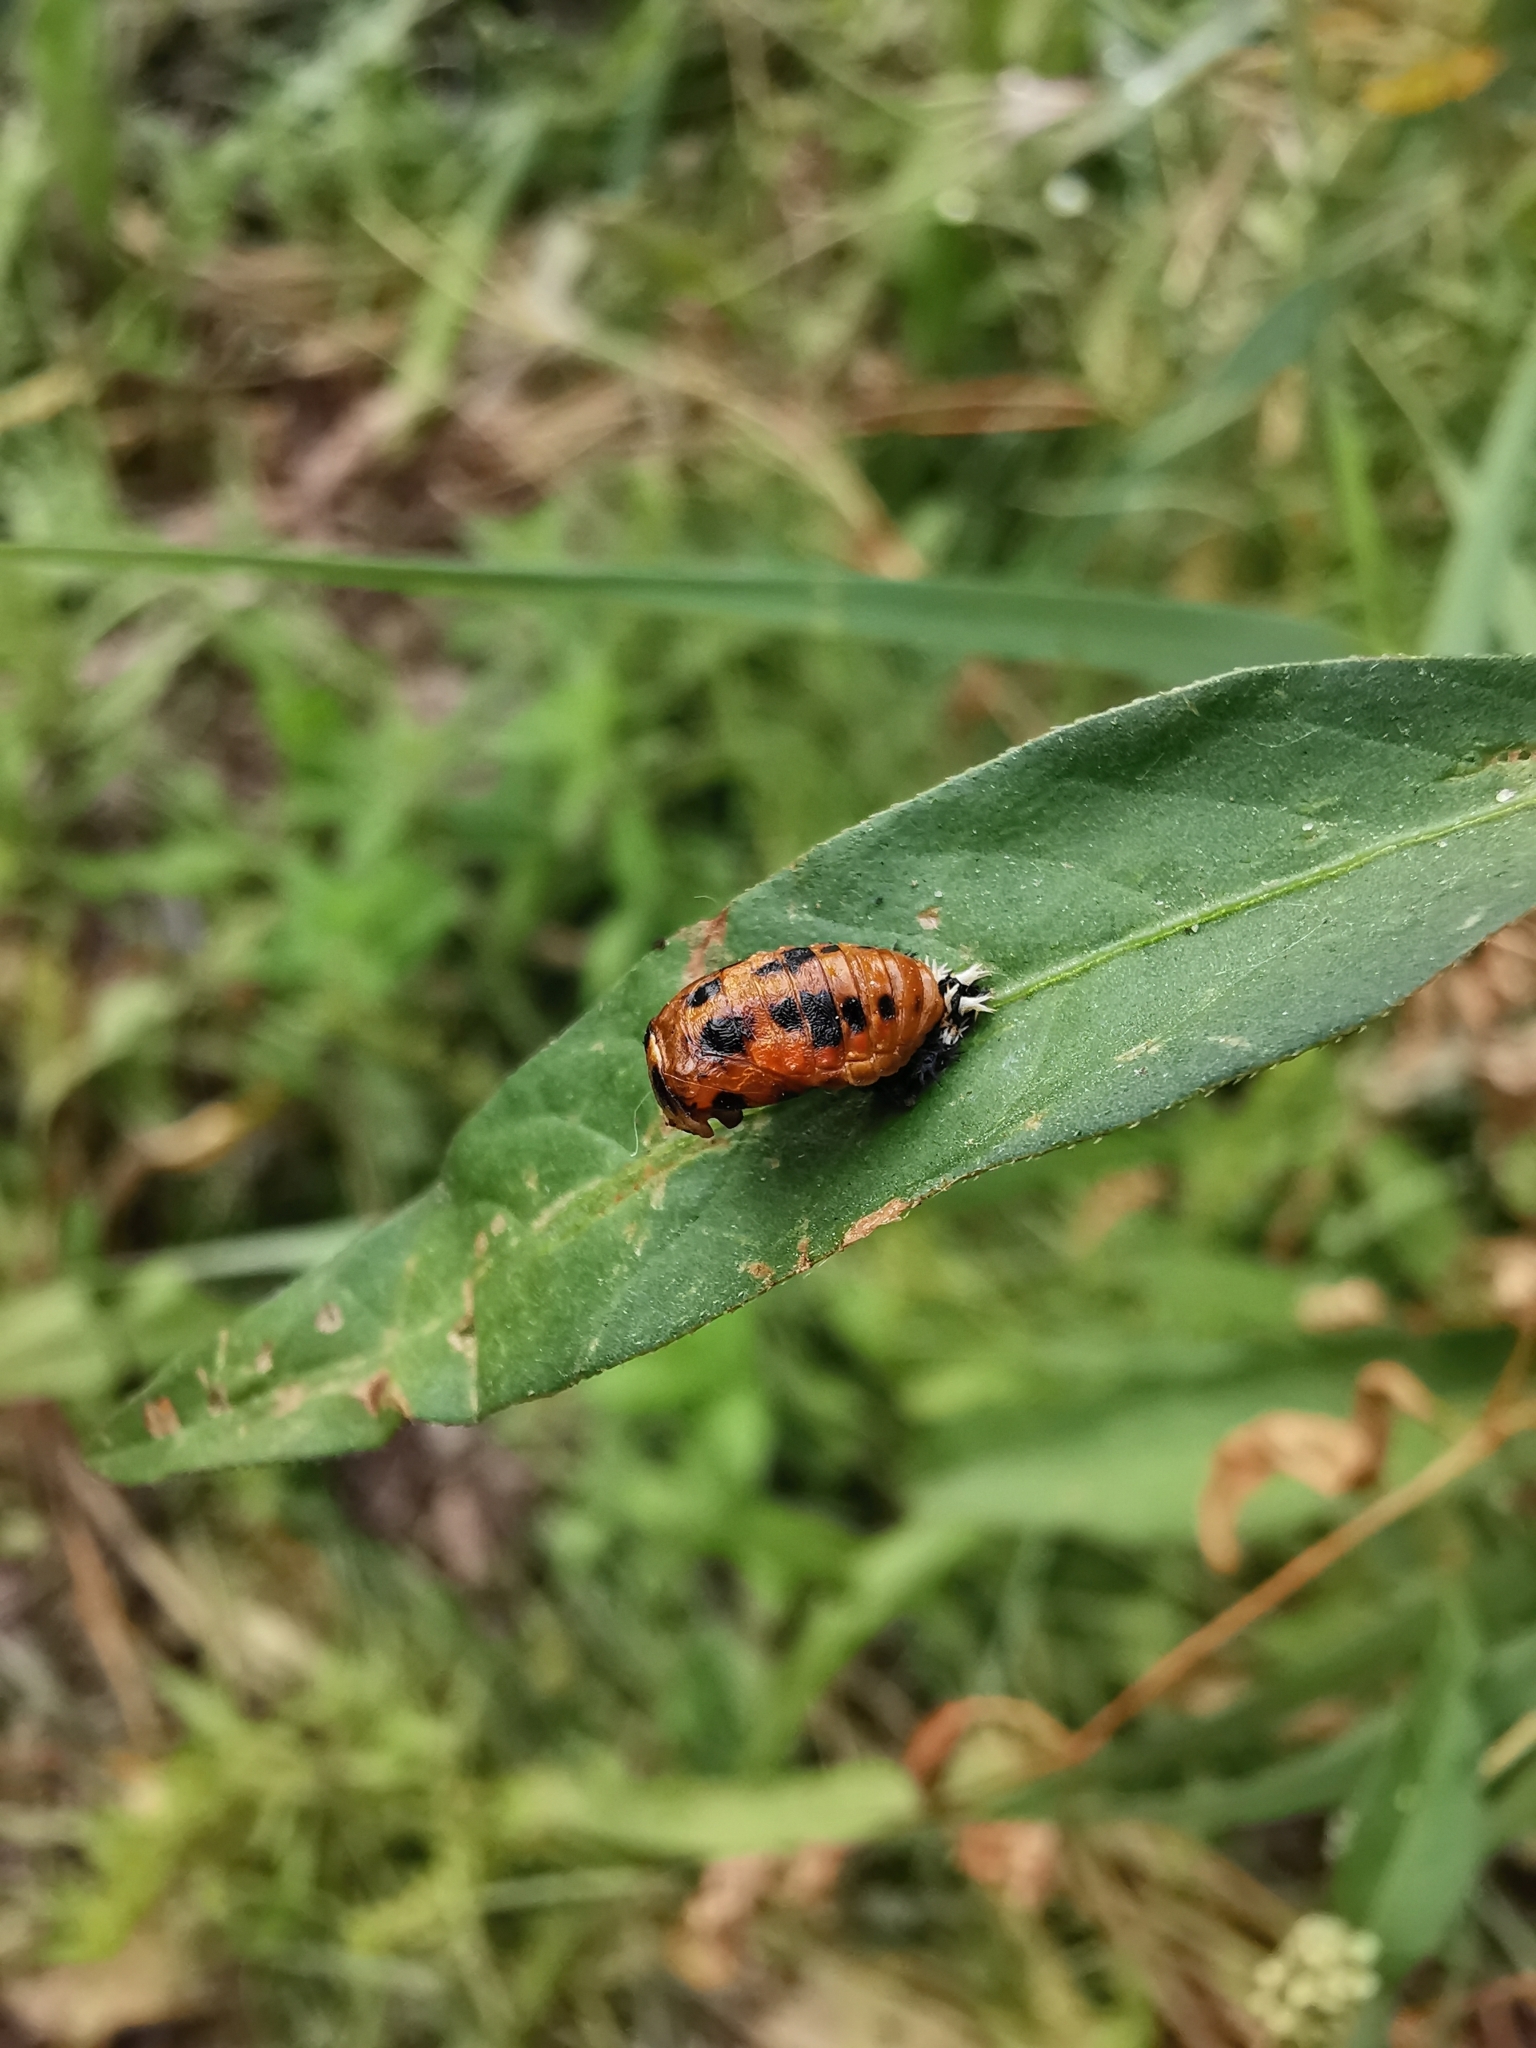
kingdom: Animalia
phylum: Arthropoda
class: Insecta
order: Coleoptera
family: Coccinellidae
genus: Harmonia
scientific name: Harmonia axyridis
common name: Harlequin ladybird
